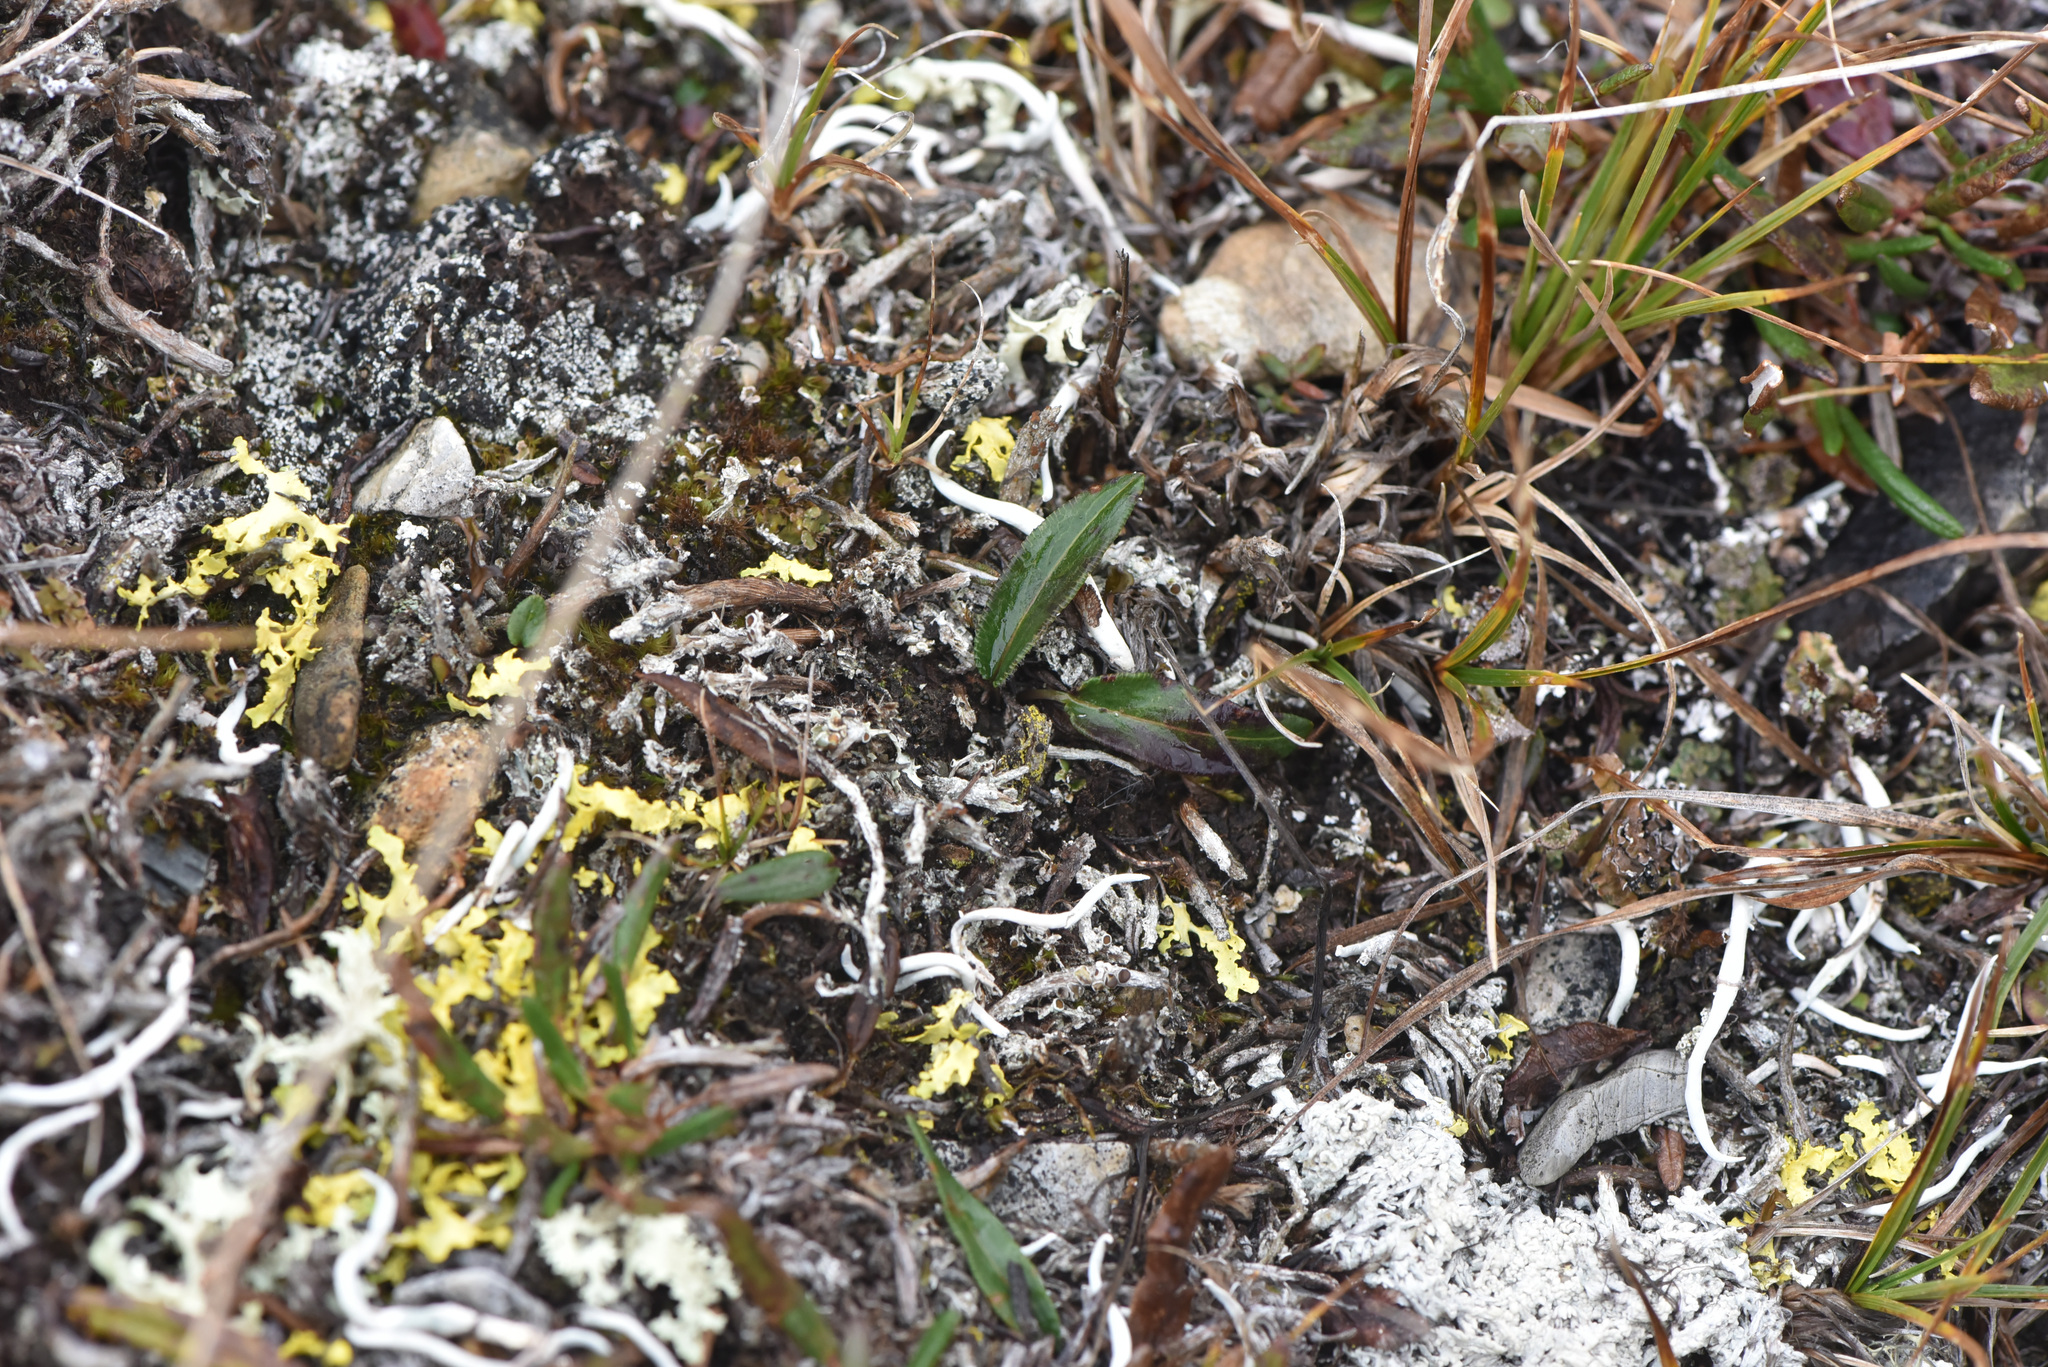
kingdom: Plantae
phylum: Tracheophyta
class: Magnoliopsida
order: Caryophyllales
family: Polygonaceae
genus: Bistorta
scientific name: Bistorta vivipara
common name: Alpine bistort
